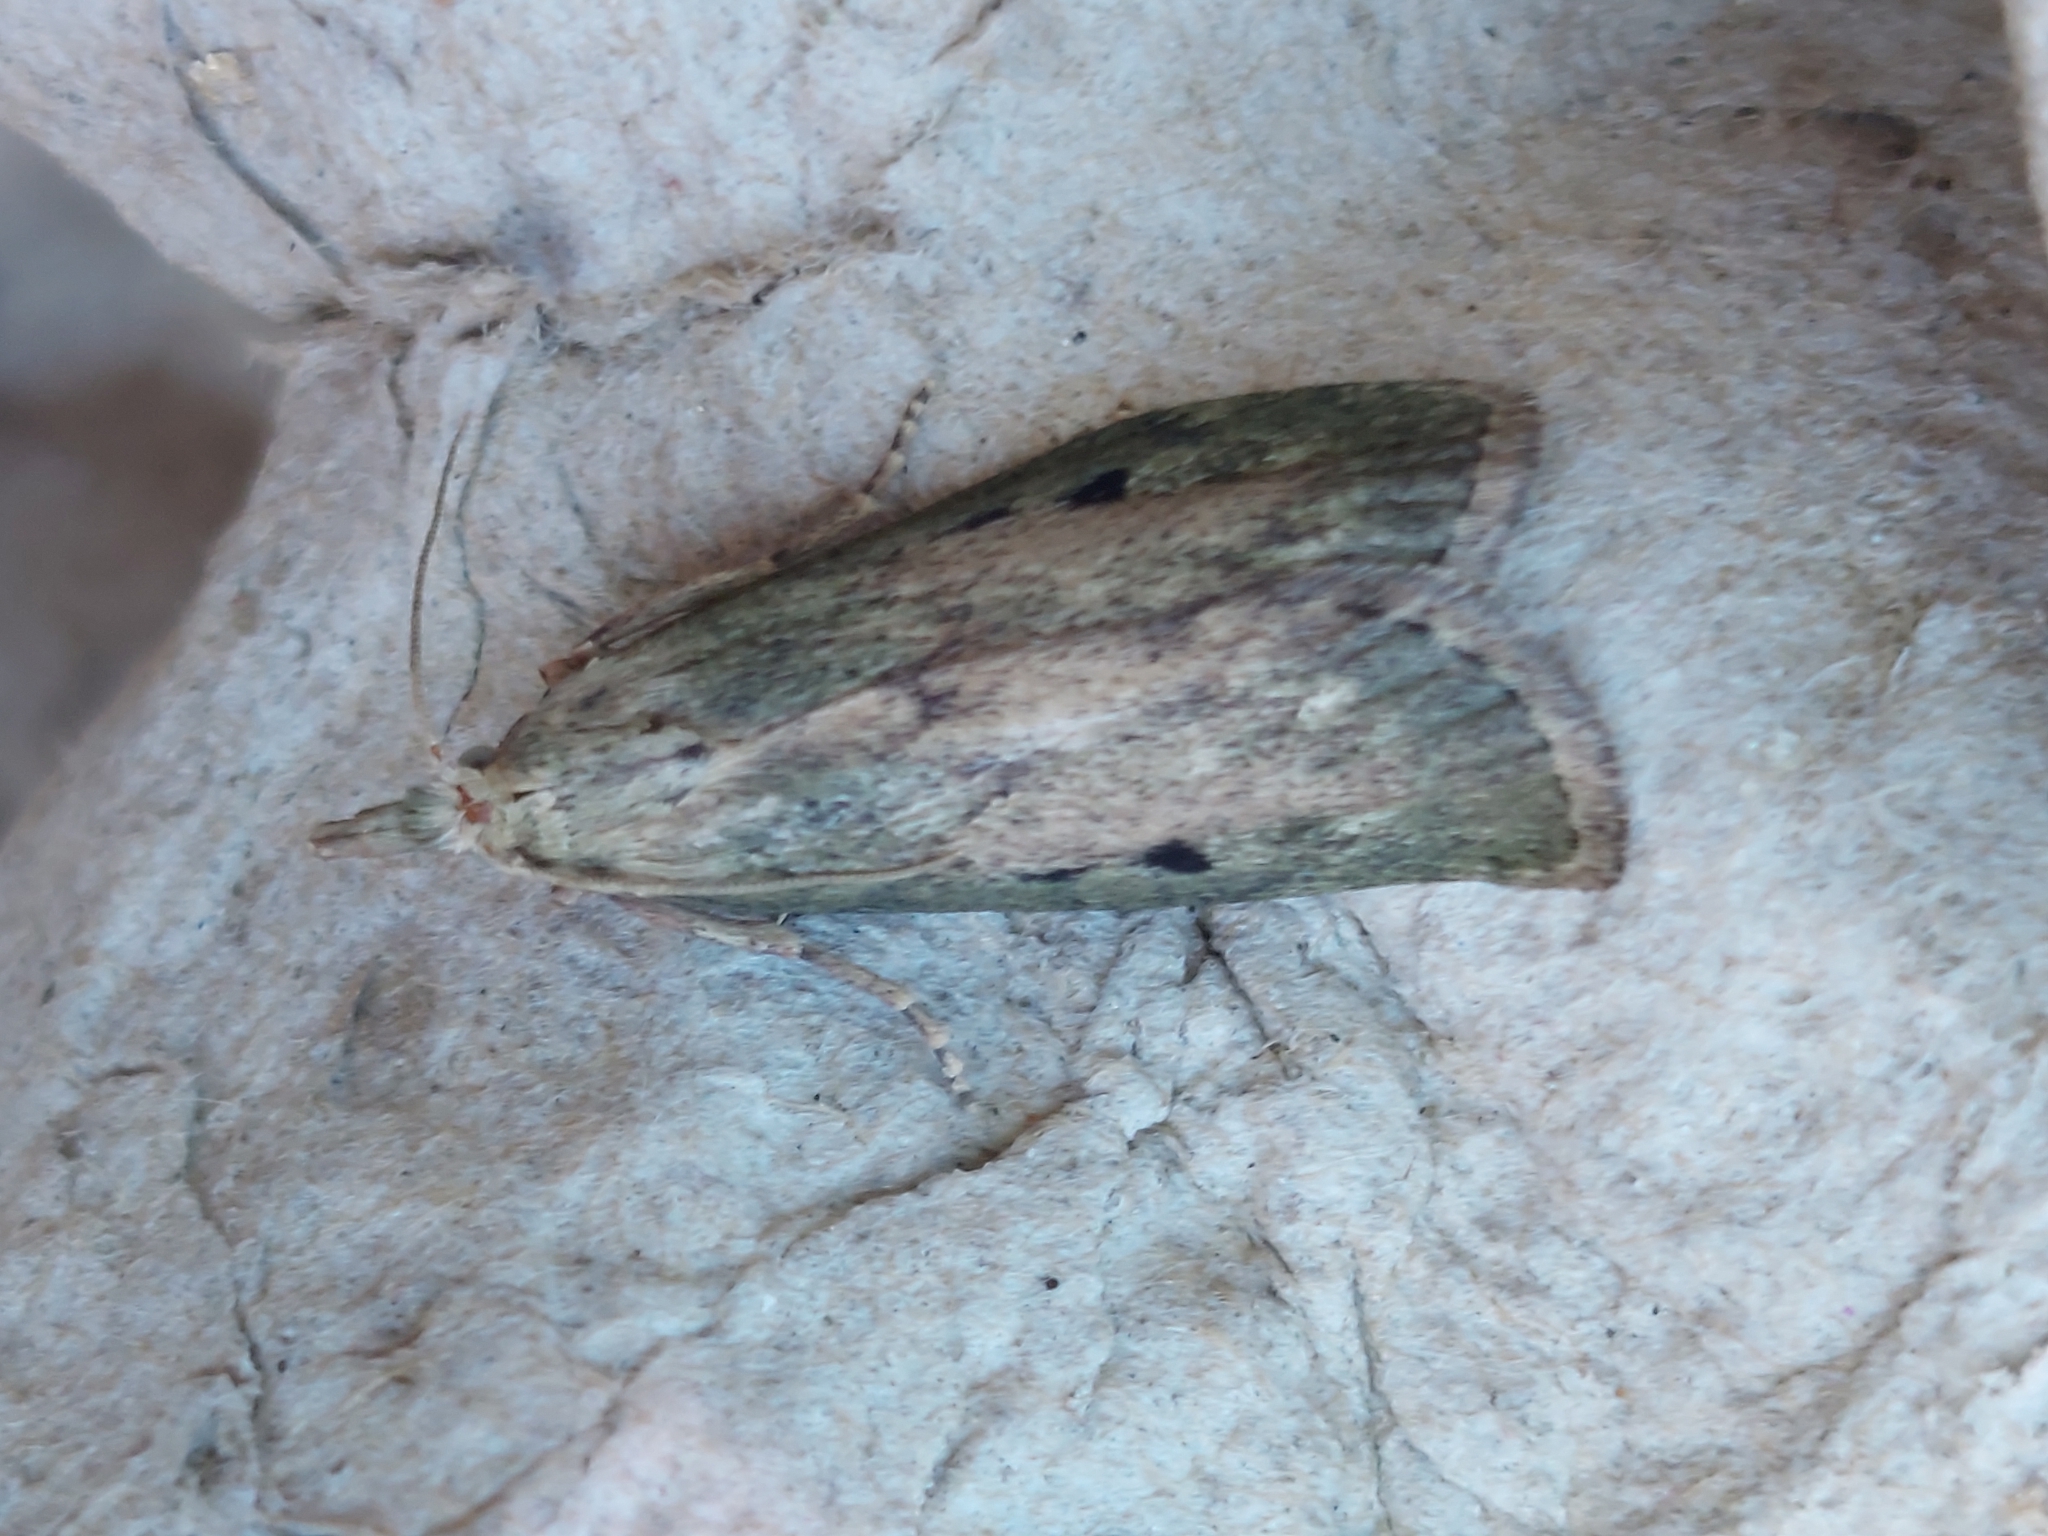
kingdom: Animalia
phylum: Arthropoda
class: Insecta
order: Lepidoptera
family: Pyralidae
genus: Aphomia
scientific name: Aphomia sociella
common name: Bee moth
